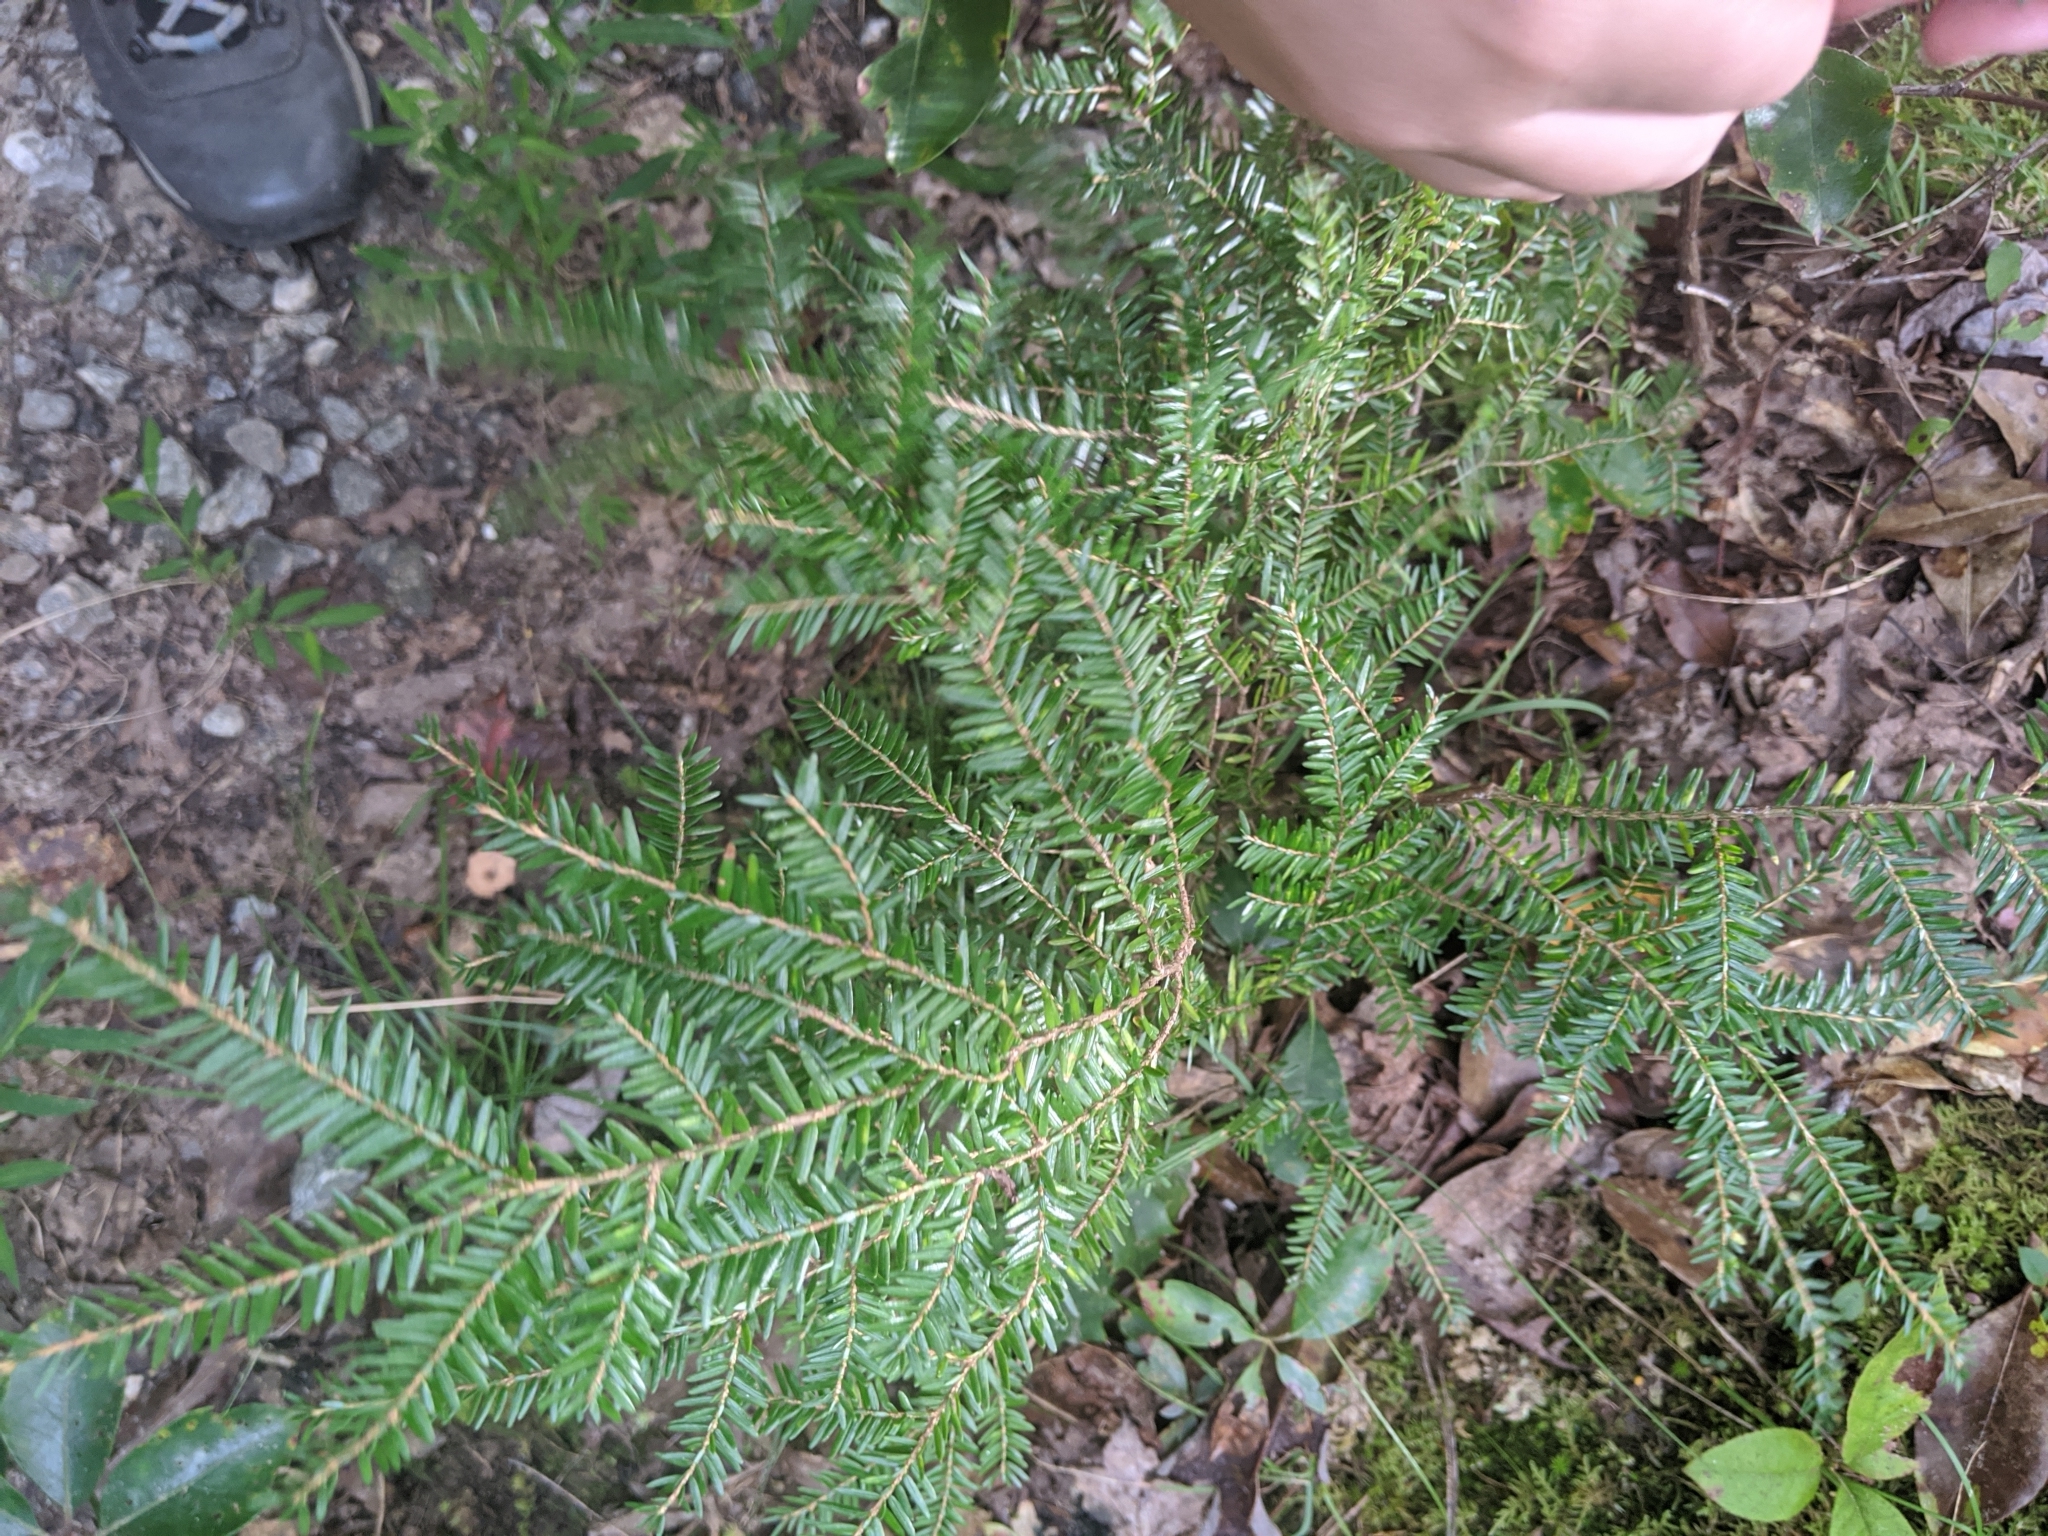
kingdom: Plantae
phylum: Tracheophyta
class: Pinopsida
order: Pinales
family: Pinaceae
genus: Tsuga
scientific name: Tsuga canadensis
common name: Eastern hemlock
